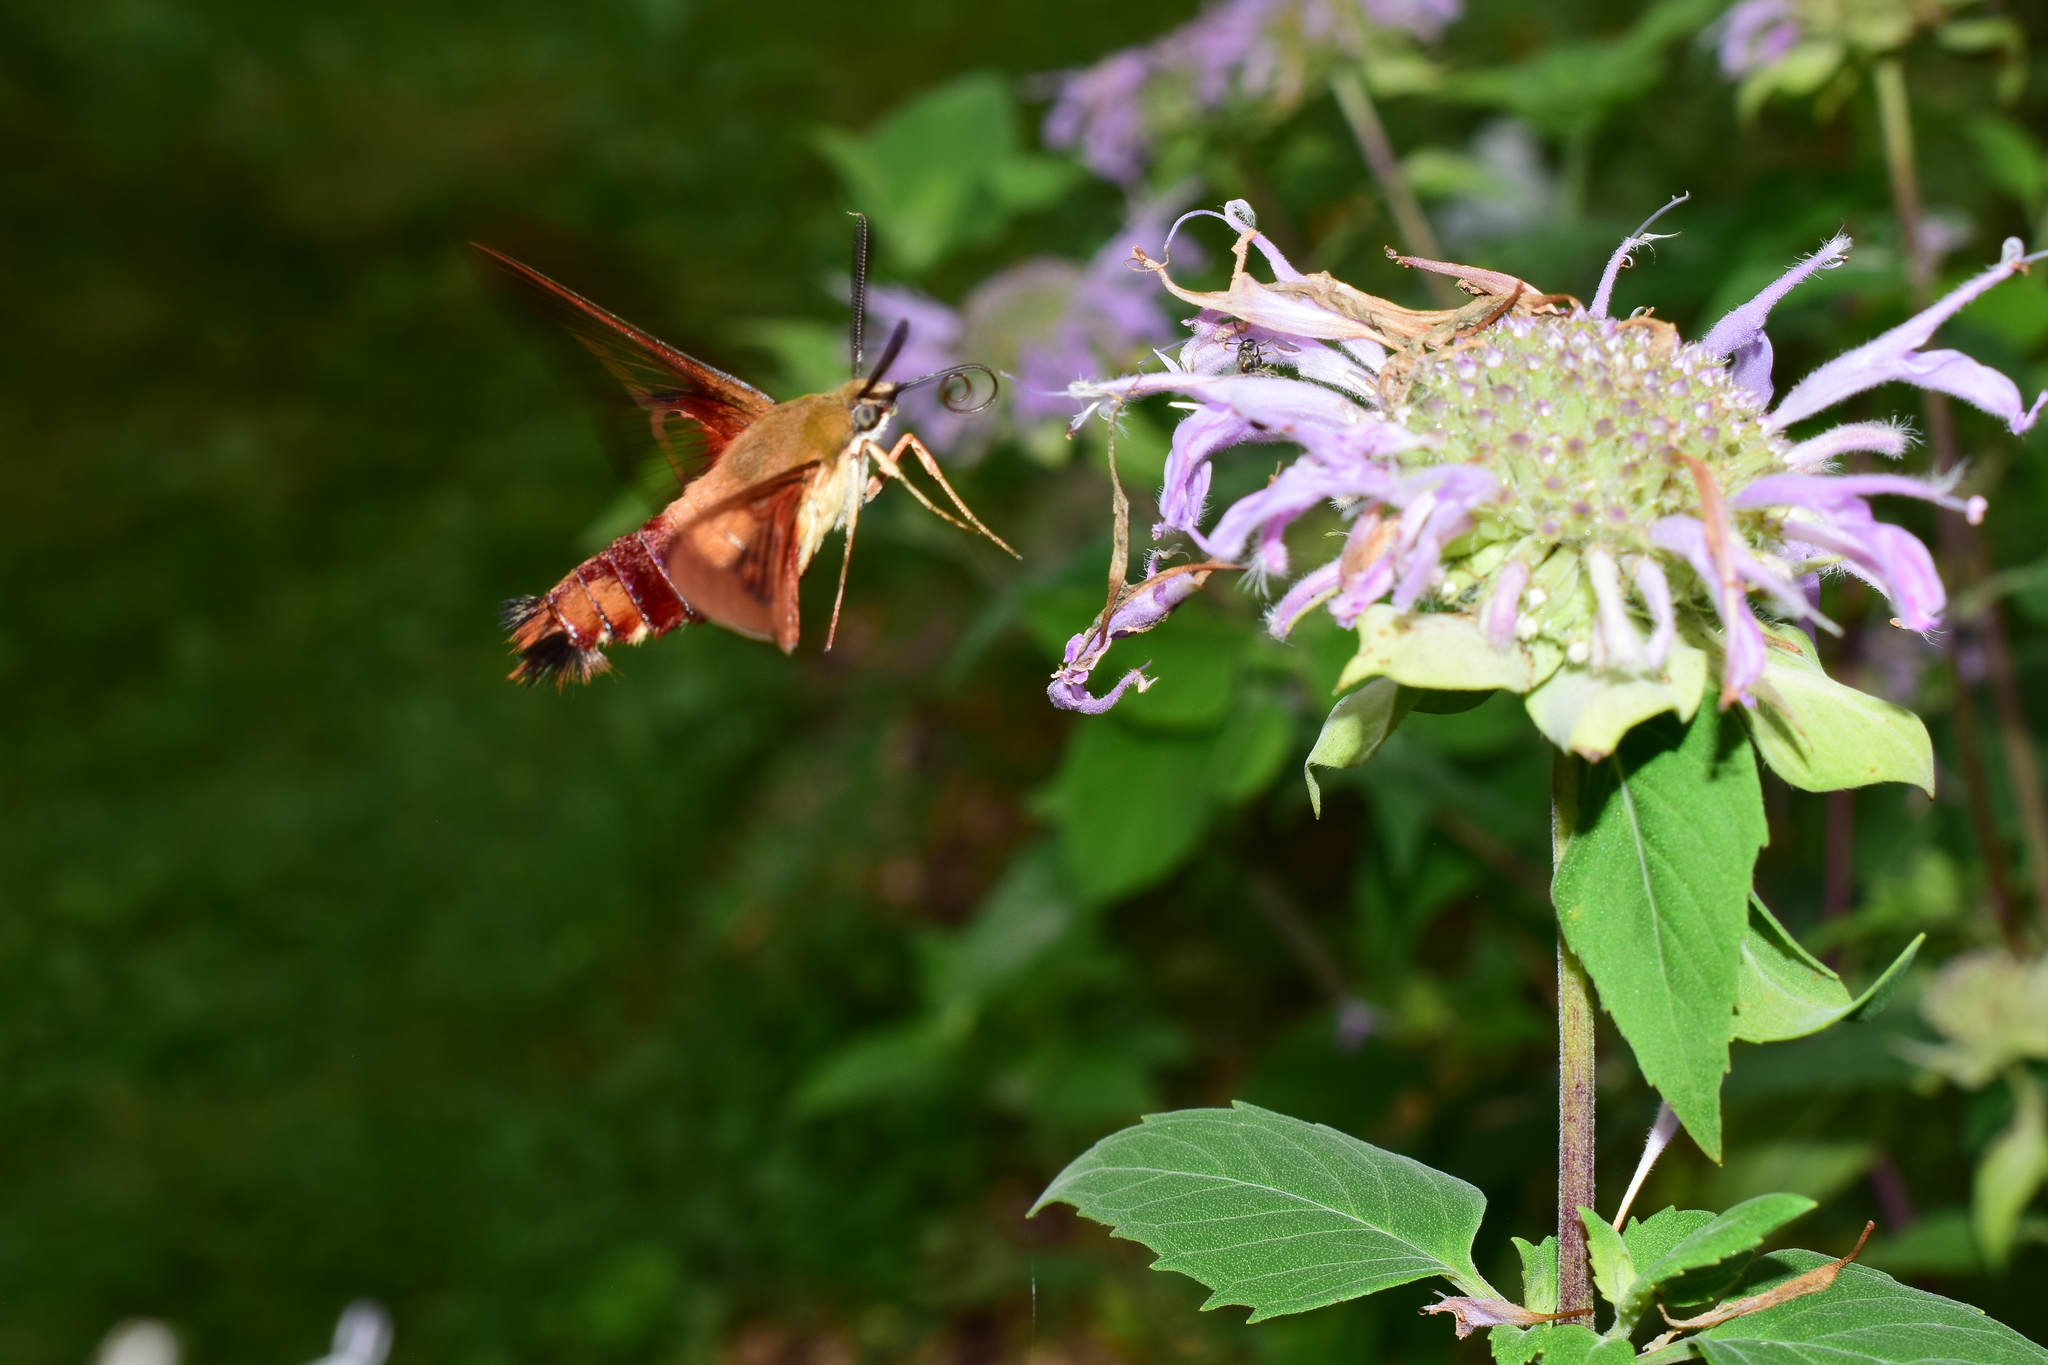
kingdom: Animalia
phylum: Arthropoda
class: Insecta
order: Lepidoptera
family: Sphingidae
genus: Hemaris
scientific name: Hemaris thysbe
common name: Common clear-wing
